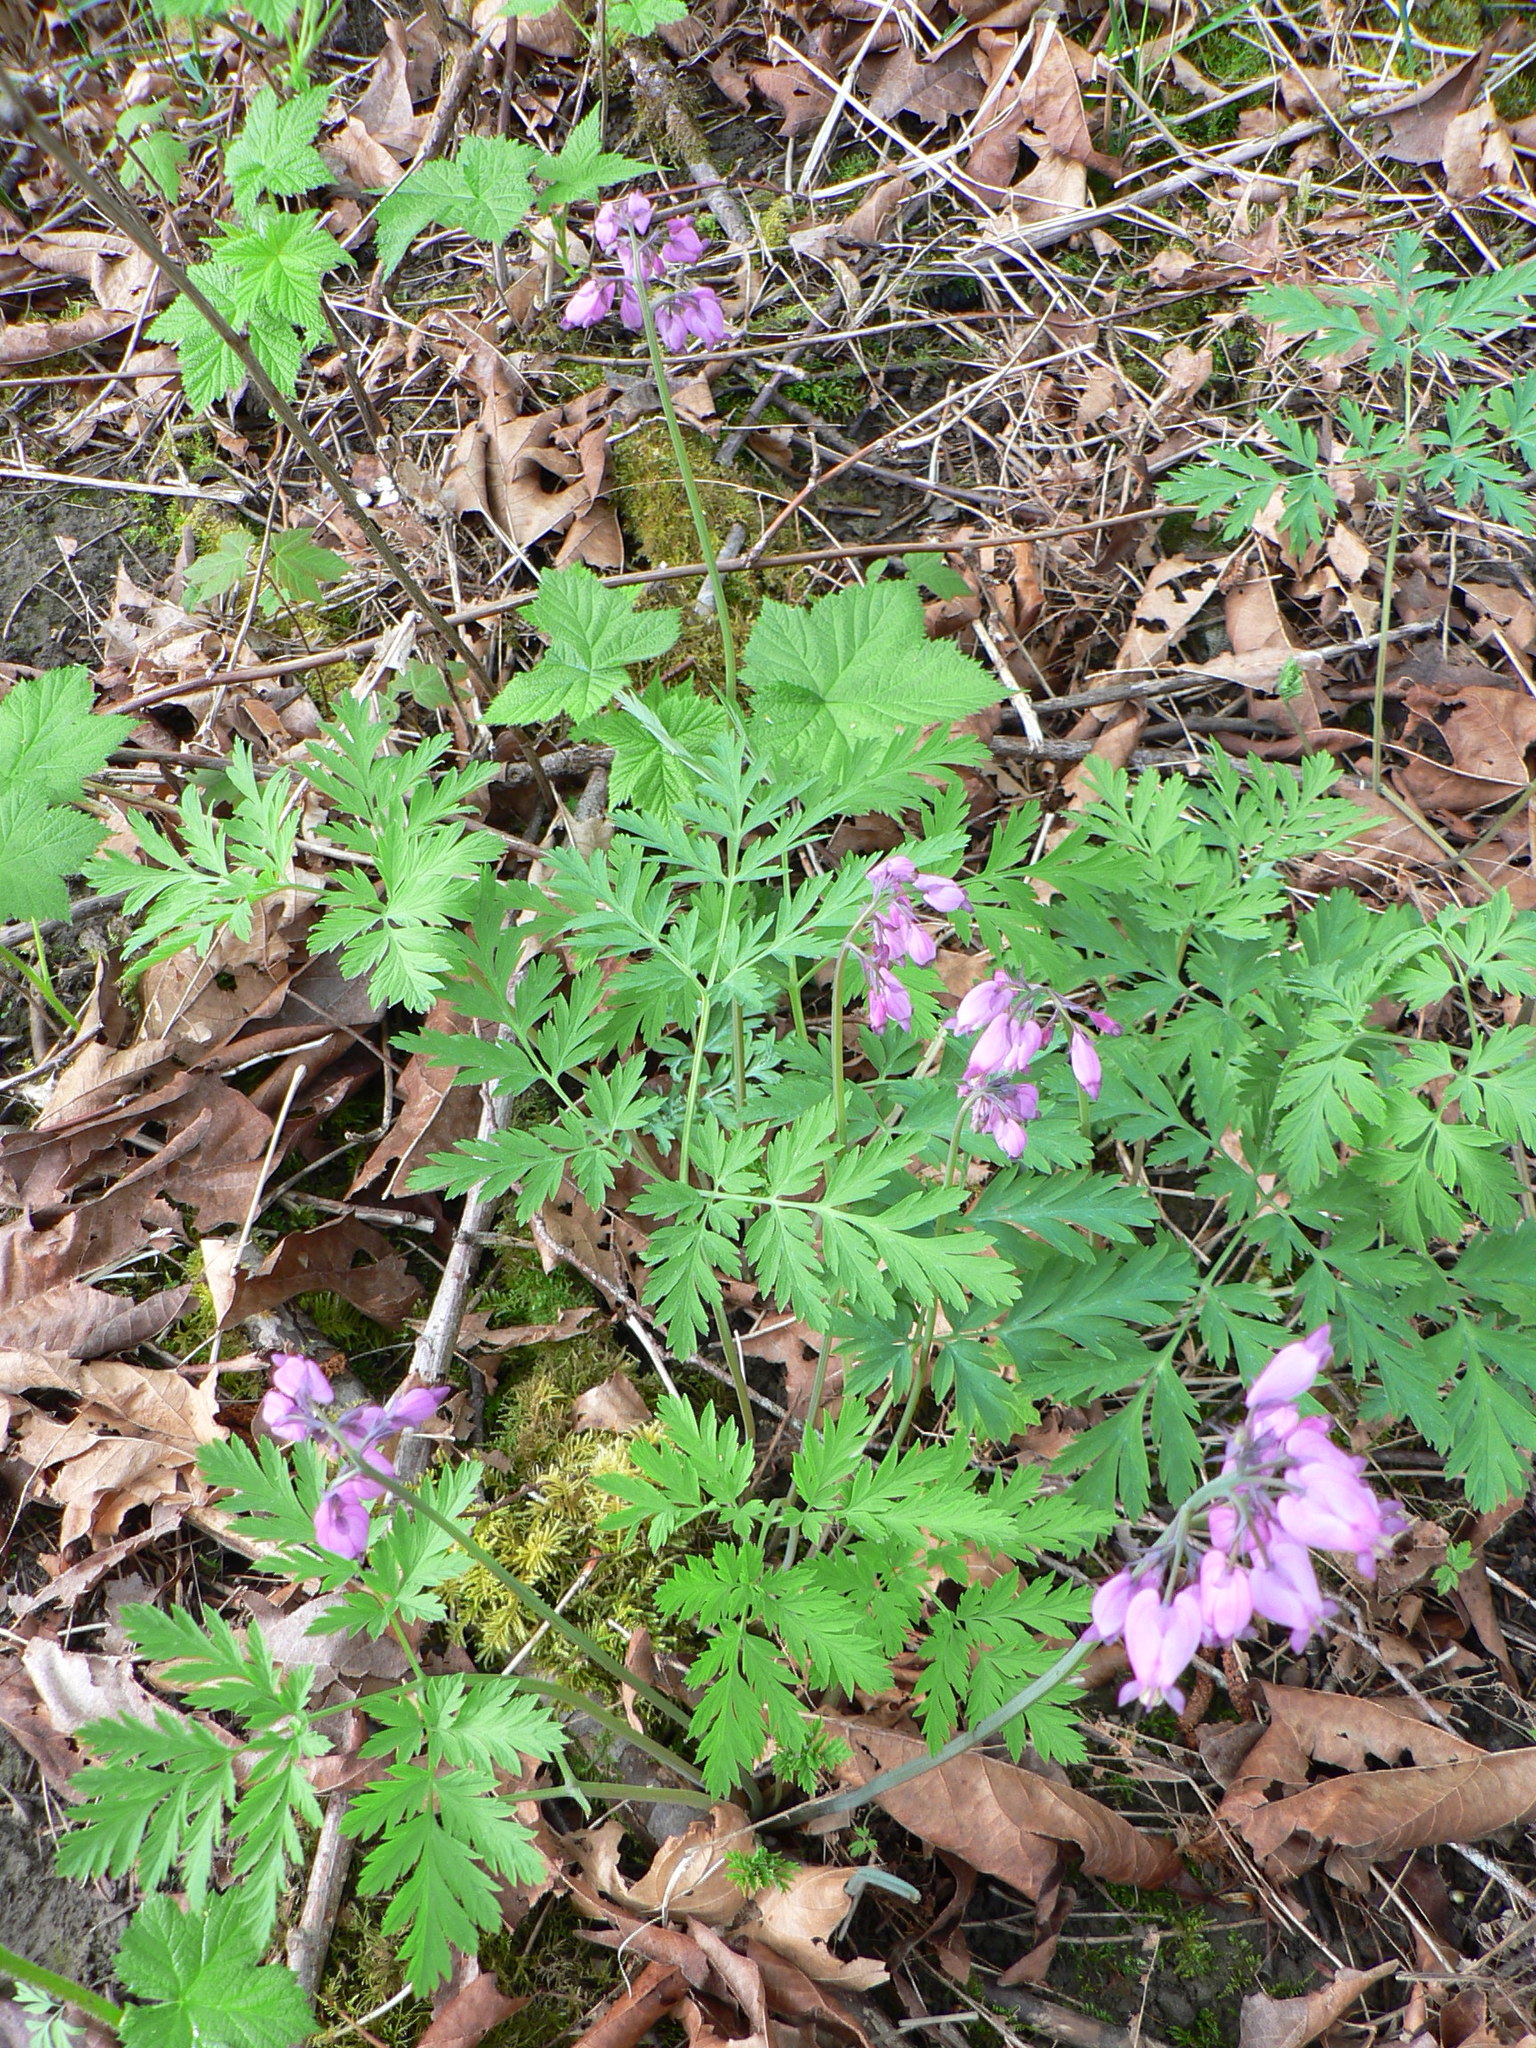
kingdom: Plantae
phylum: Tracheophyta
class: Magnoliopsida
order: Ranunculales
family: Papaveraceae
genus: Dicentra
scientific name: Dicentra formosa
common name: Bleeding-heart
